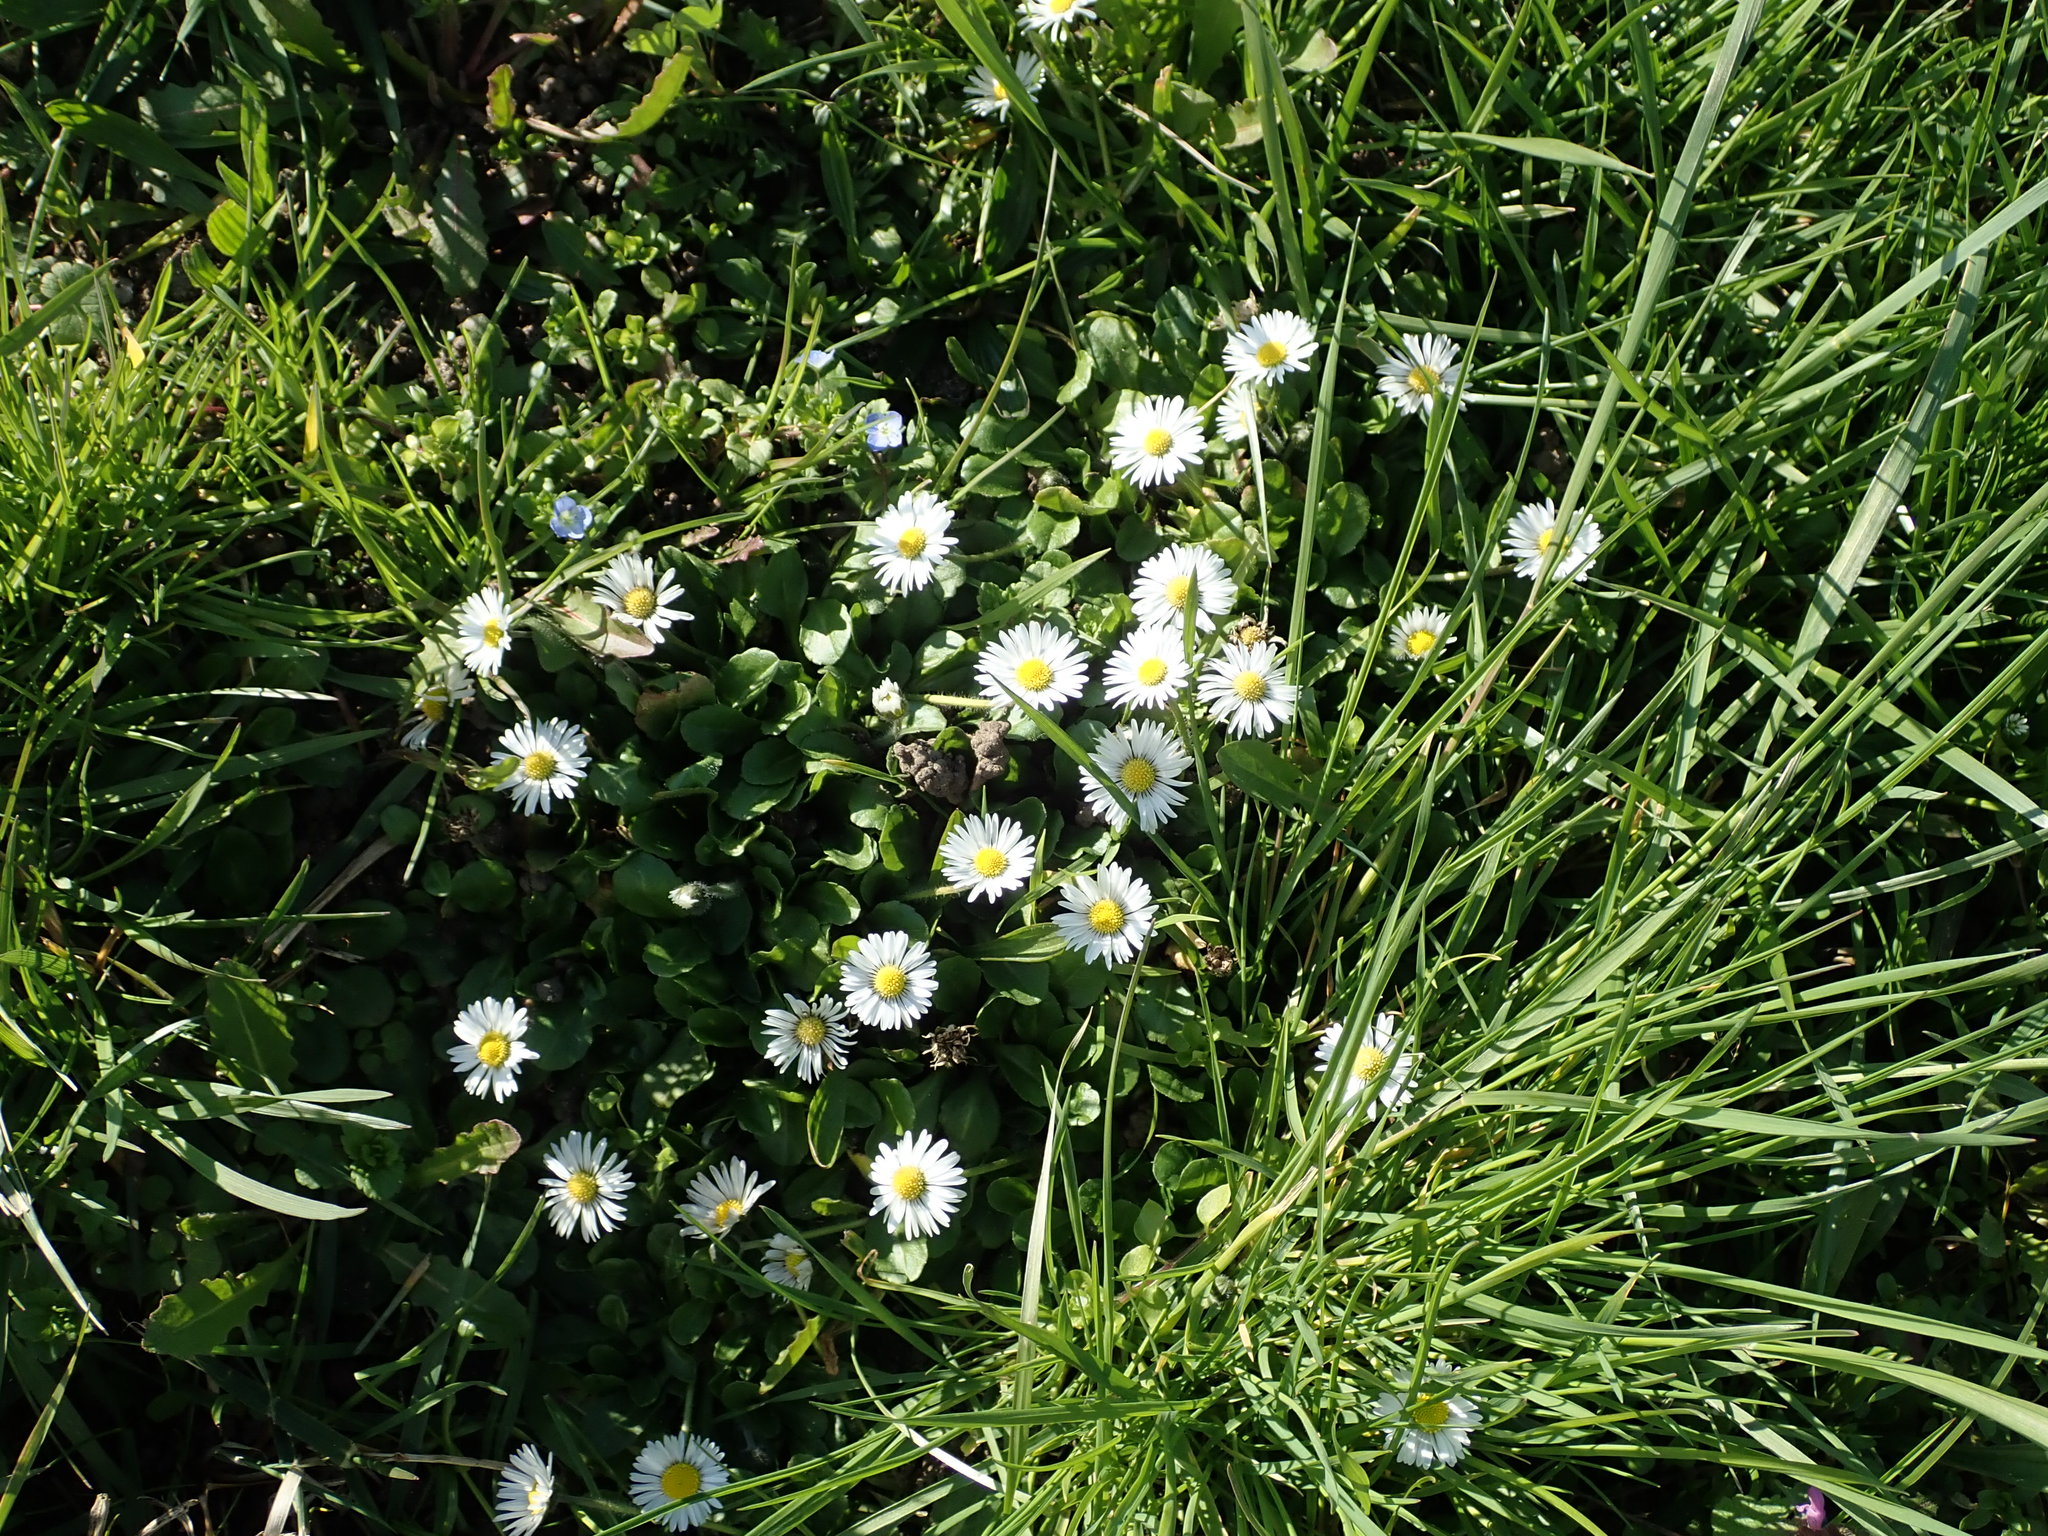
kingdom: Plantae
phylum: Tracheophyta
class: Magnoliopsida
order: Asterales
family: Asteraceae
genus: Bellis
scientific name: Bellis perennis
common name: Lawndaisy
